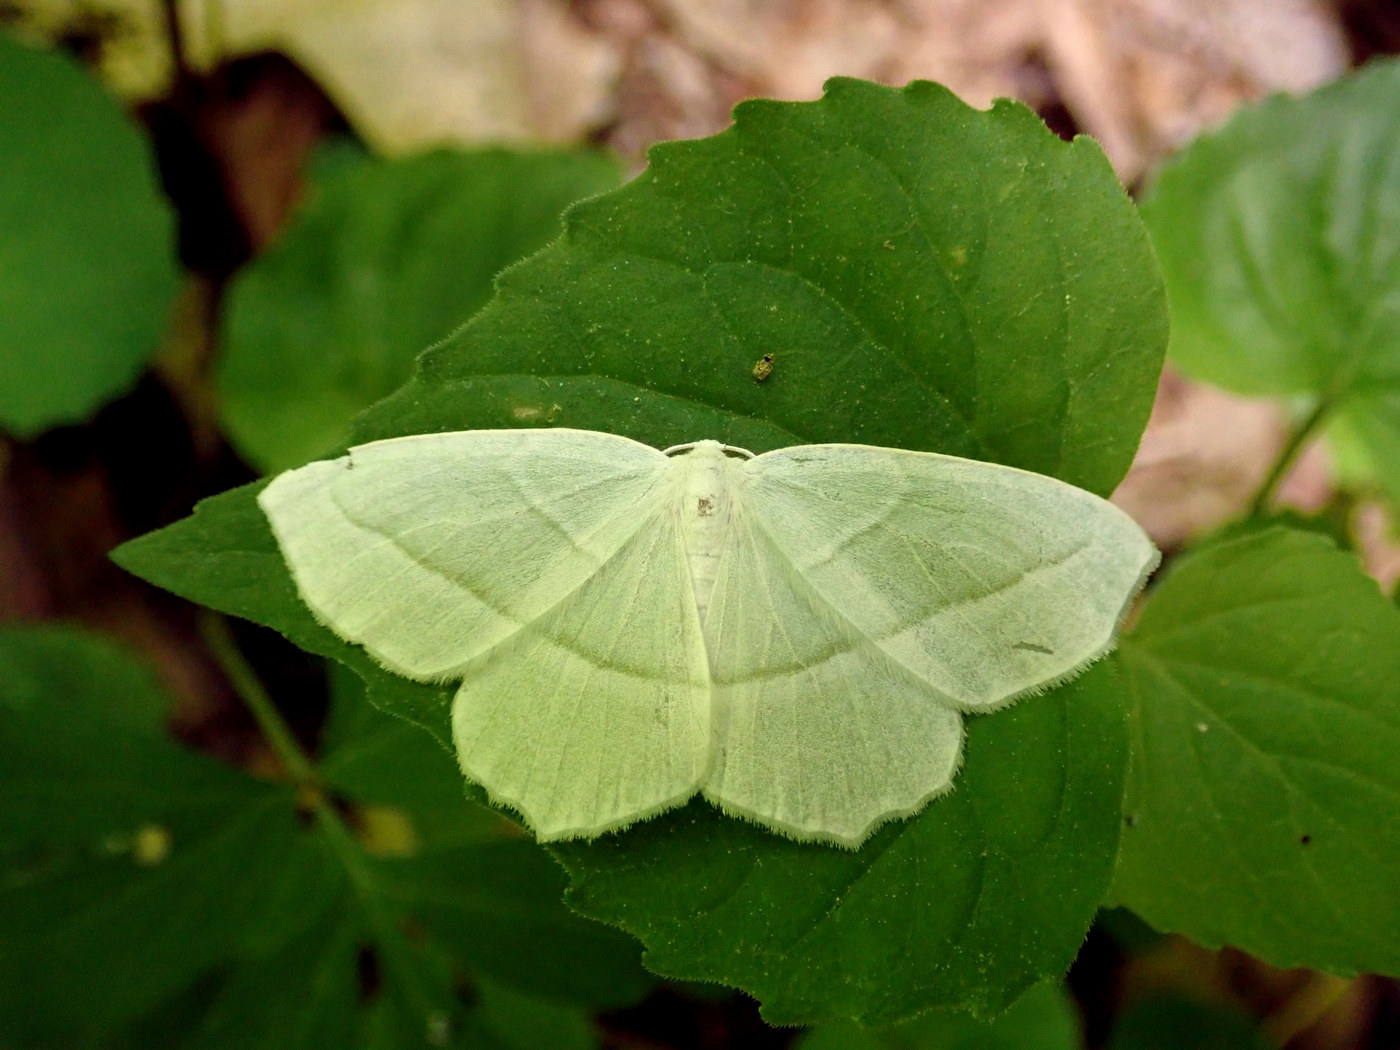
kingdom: Animalia
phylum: Arthropoda
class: Insecta
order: Lepidoptera
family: Geometridae
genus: Campaea
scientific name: Campaea perlata
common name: Fringed looper
